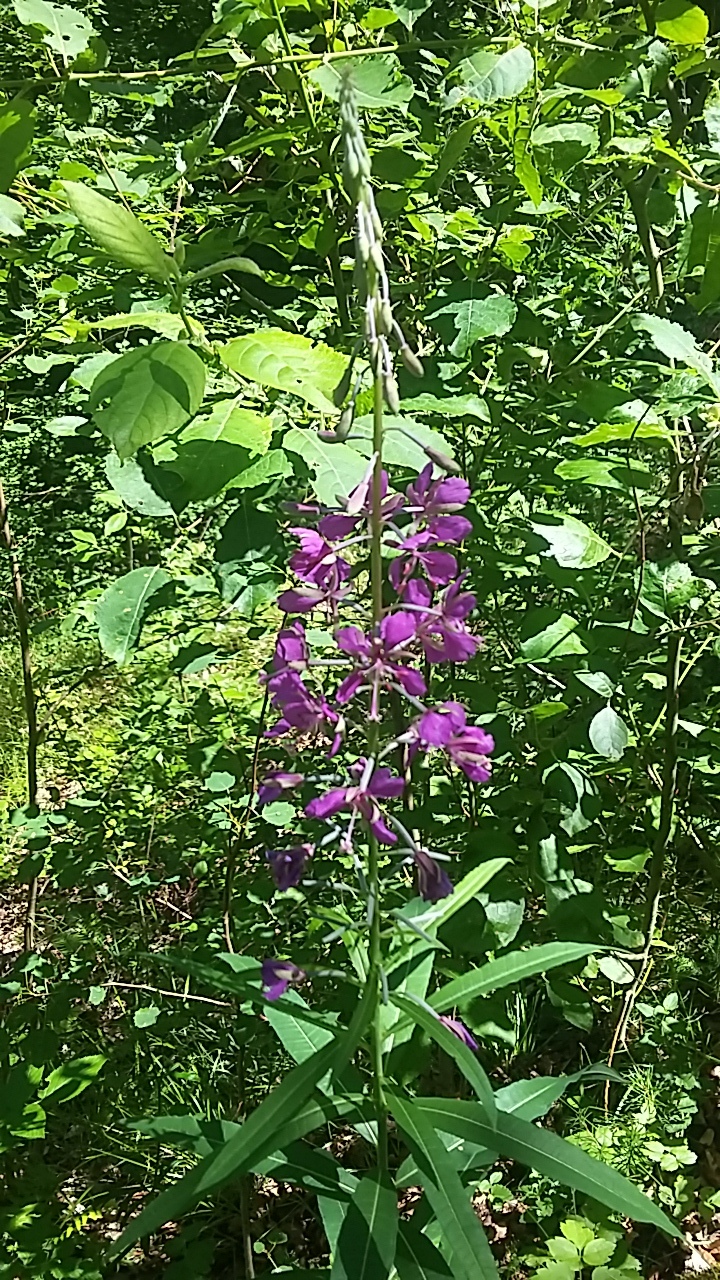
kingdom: Plantae
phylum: Tracheophyta
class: Magnoliopsida
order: Myrtales
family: Onagraceae
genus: Chamaenerion
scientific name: Chamaenerion angustifolium
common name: Fireweed
